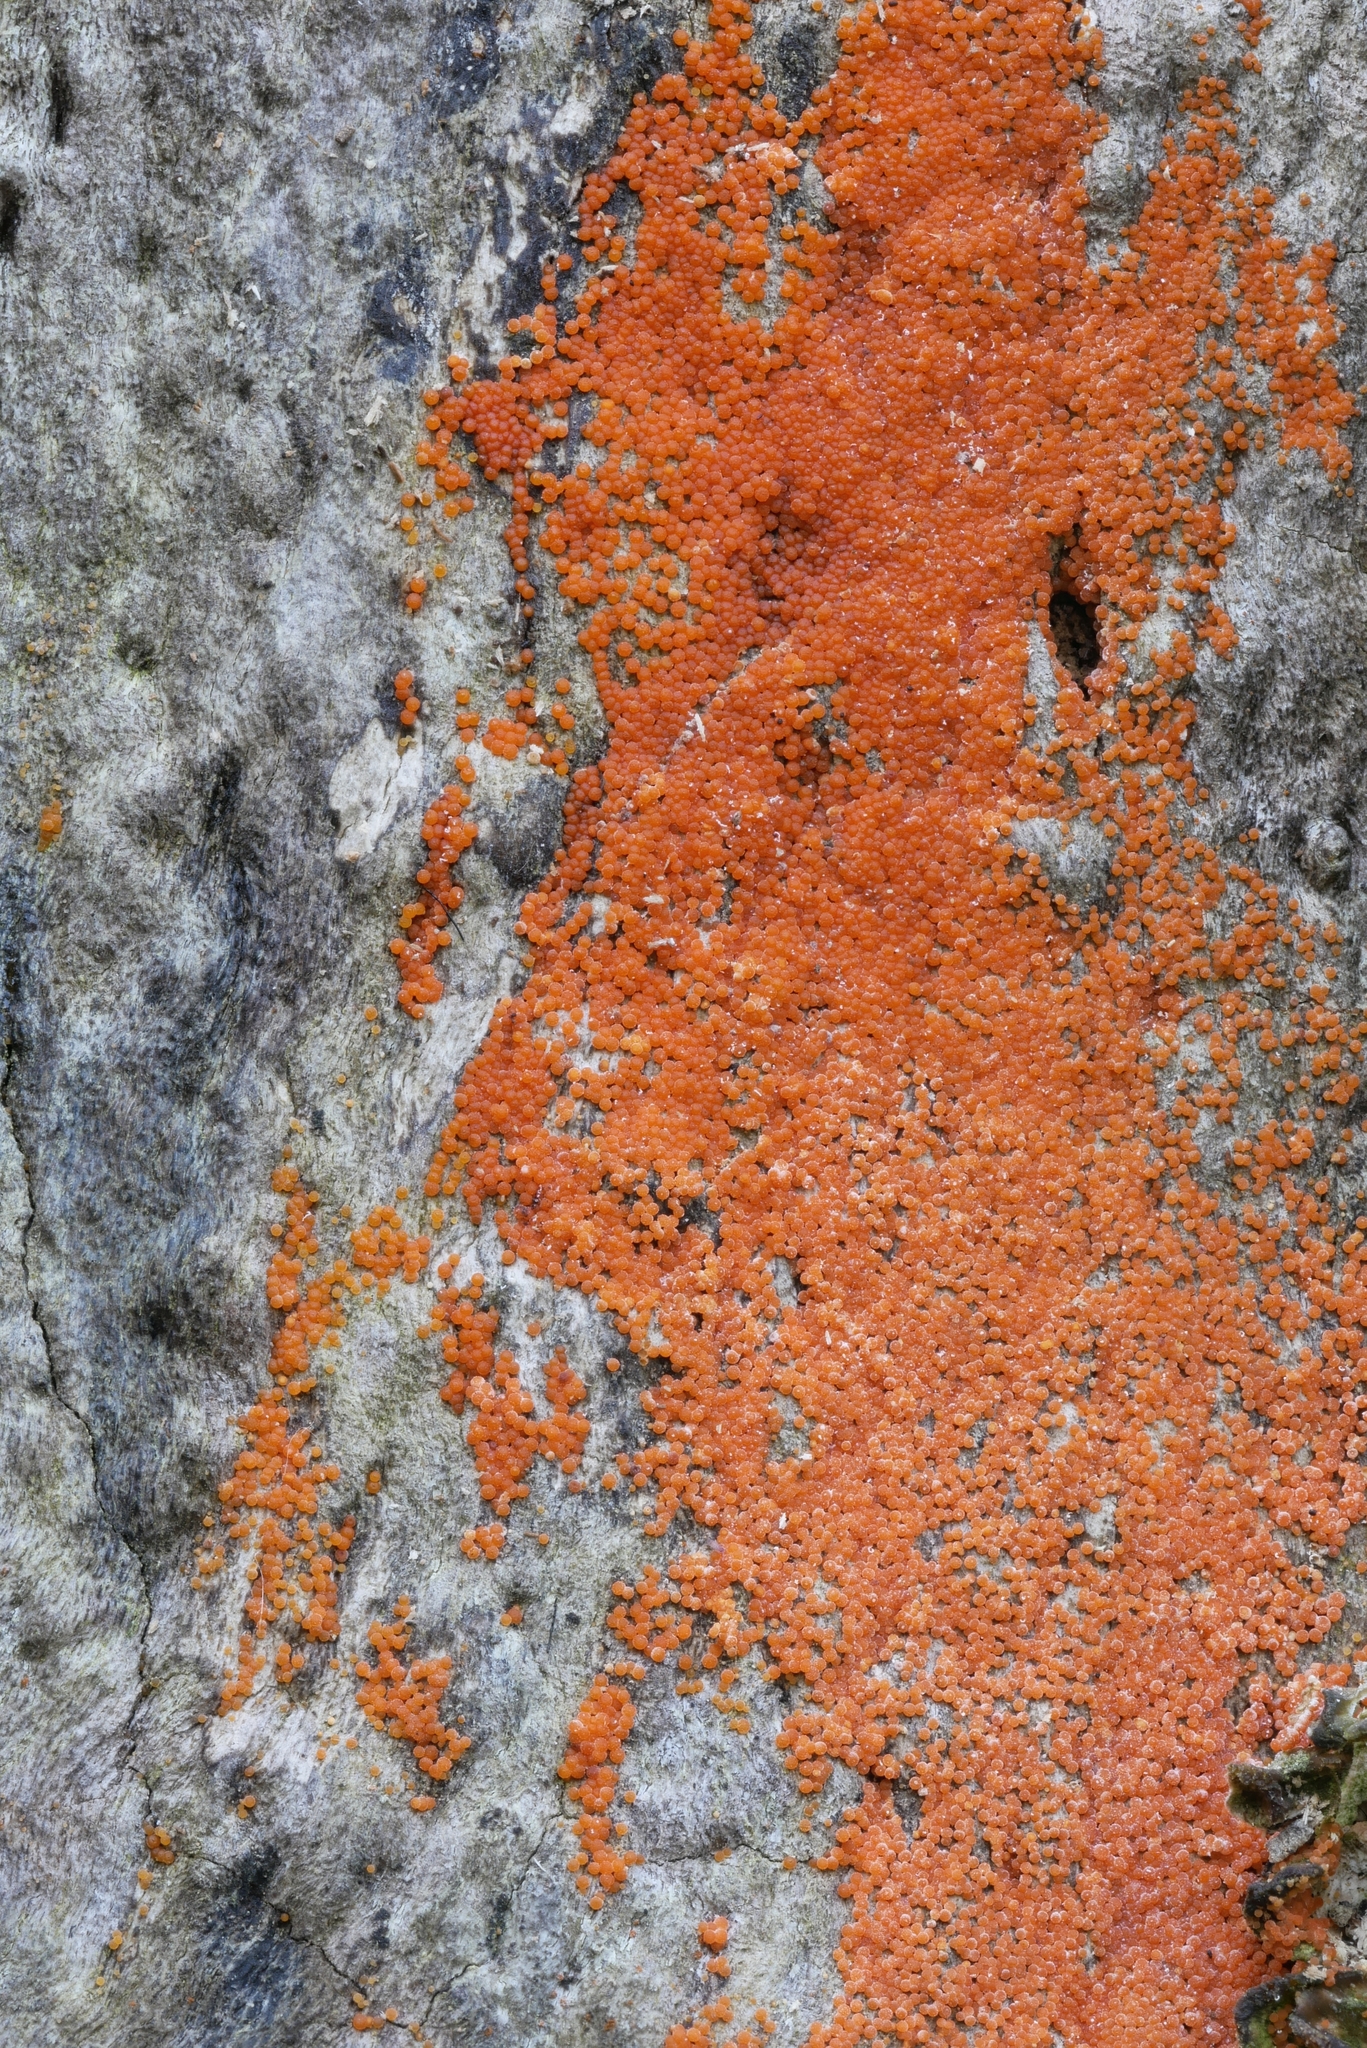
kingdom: Fungi
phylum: Ascomycota
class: Sordariomycetes
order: Hypocreales
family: Nectriaceae
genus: Hydropisphaera
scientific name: Hydropisphaera peziza
